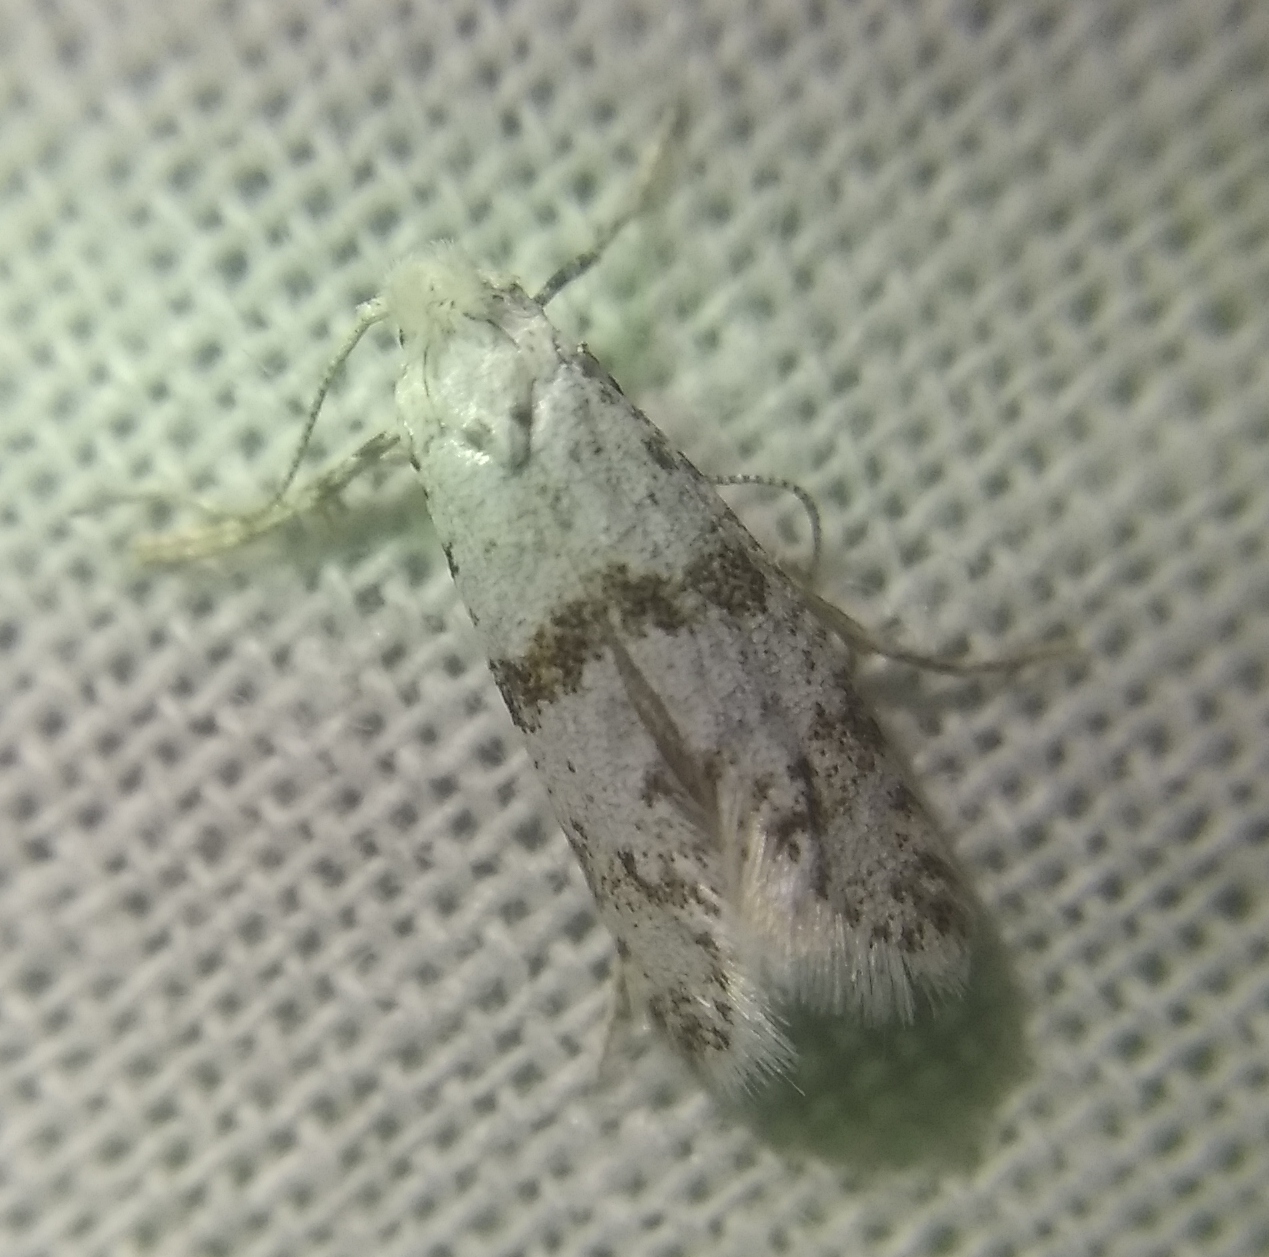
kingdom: Animalia
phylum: Arthropoda
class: Insecta
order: Lepidoptera
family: Yponomeutidae
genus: Scythropia
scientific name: Scythropia crataegella
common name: Hawthorn moth
